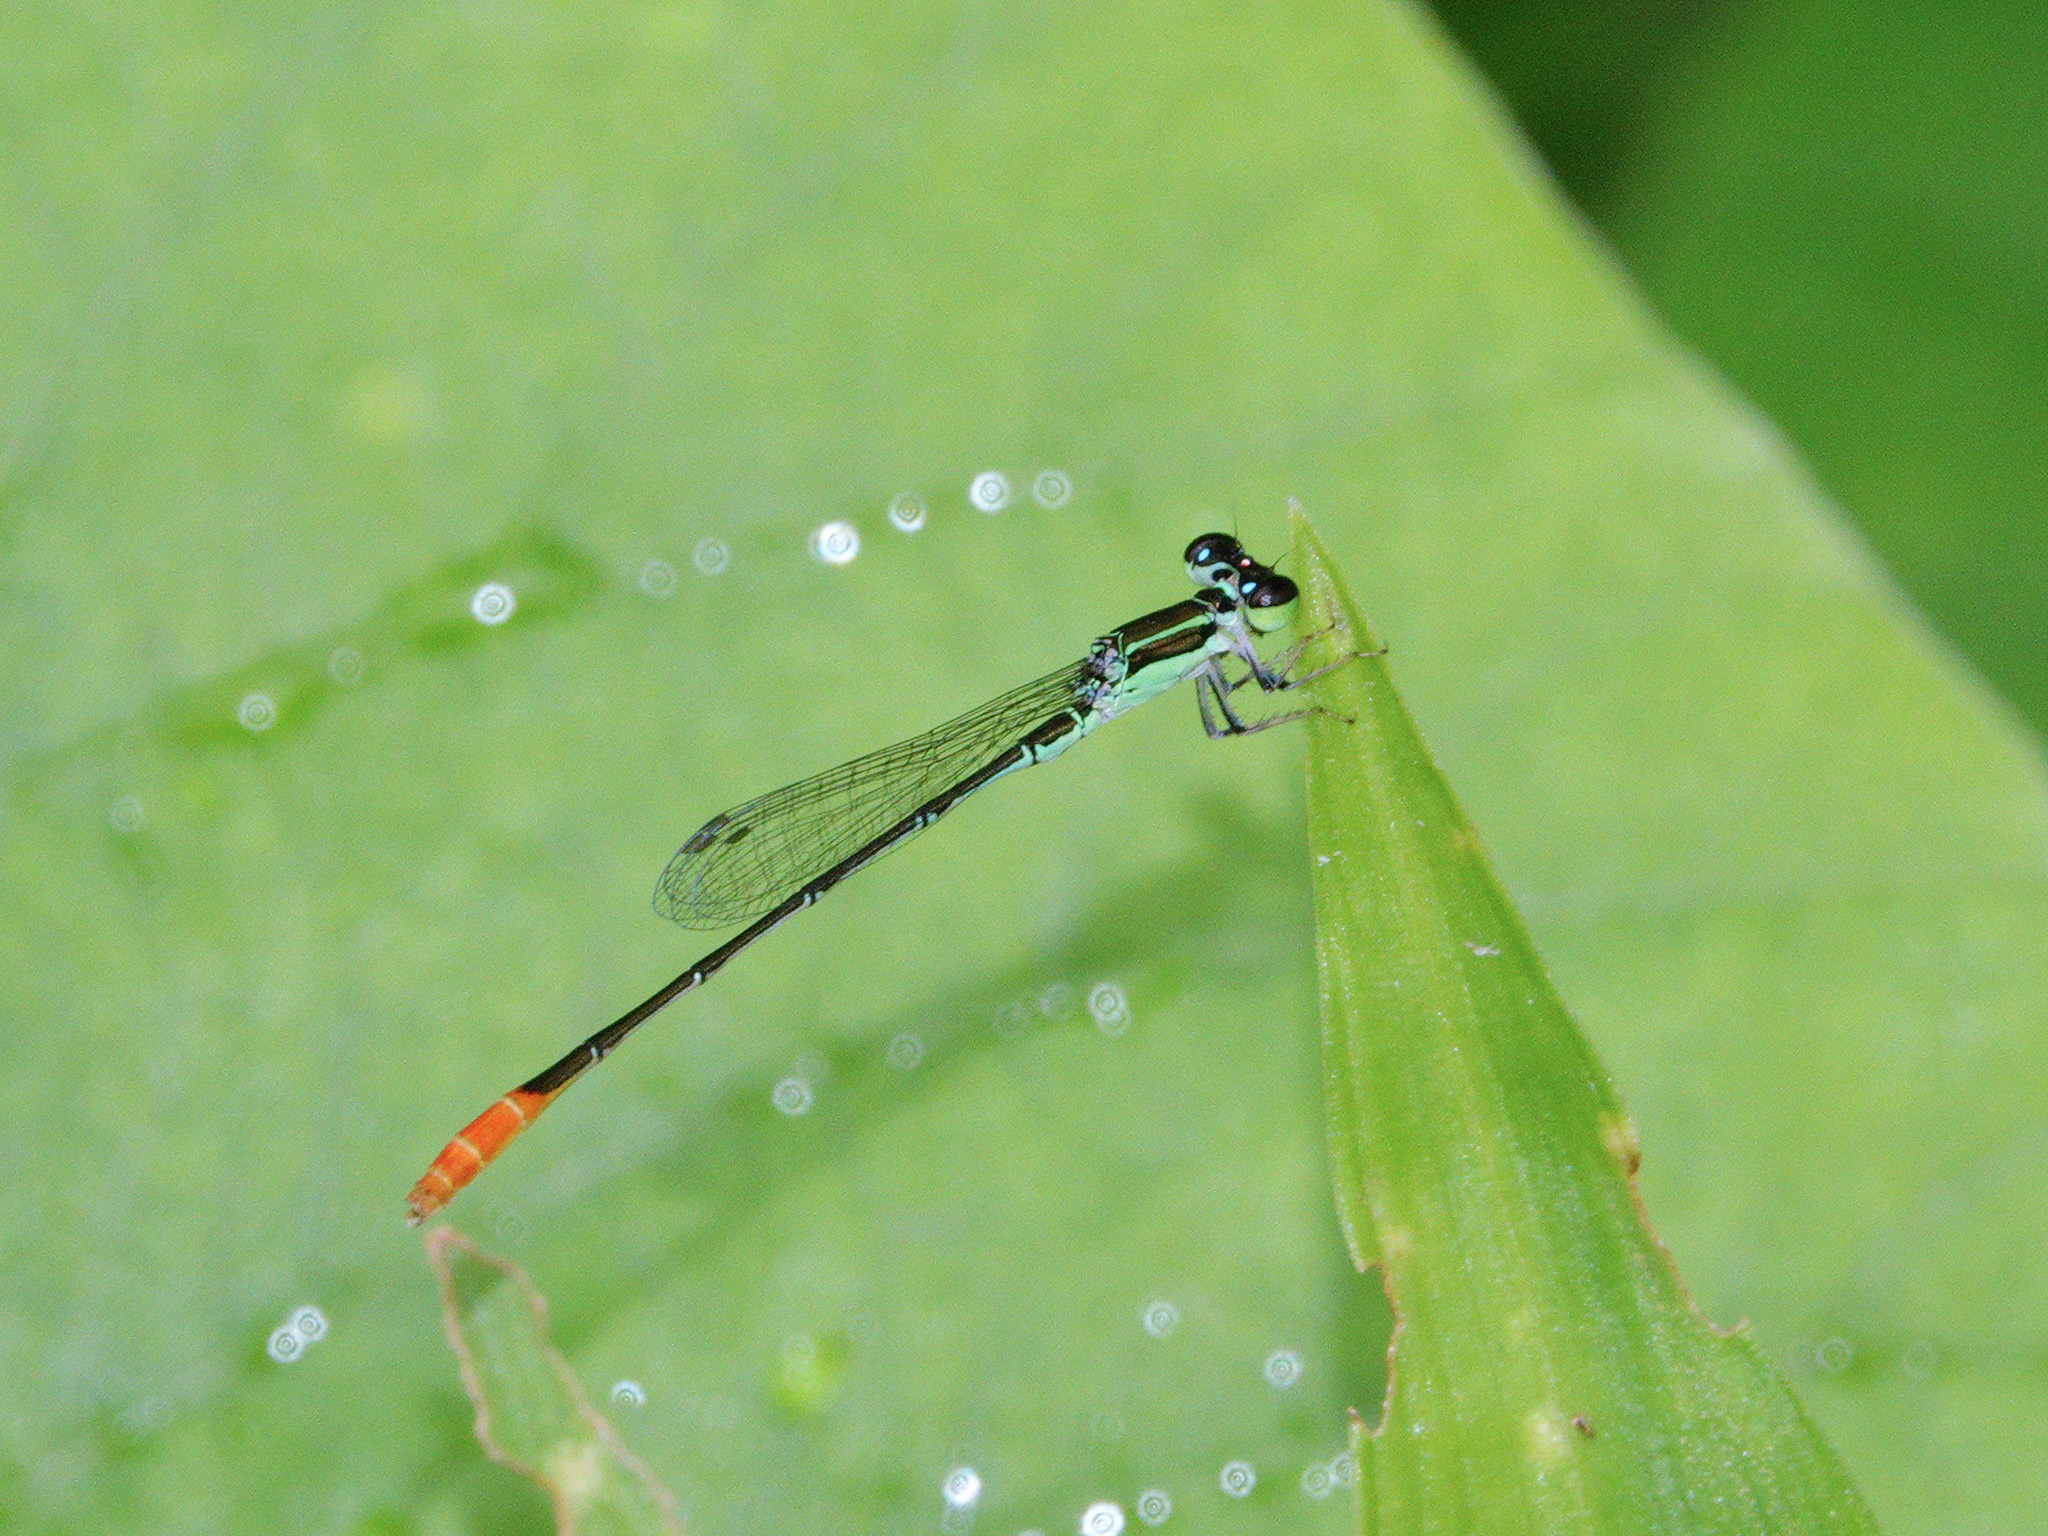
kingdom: Animalia
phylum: Arthropoda
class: Insecta
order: Odonata
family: Coenagrionidae
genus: Agriocnemis
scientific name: Agriocnemis femina
